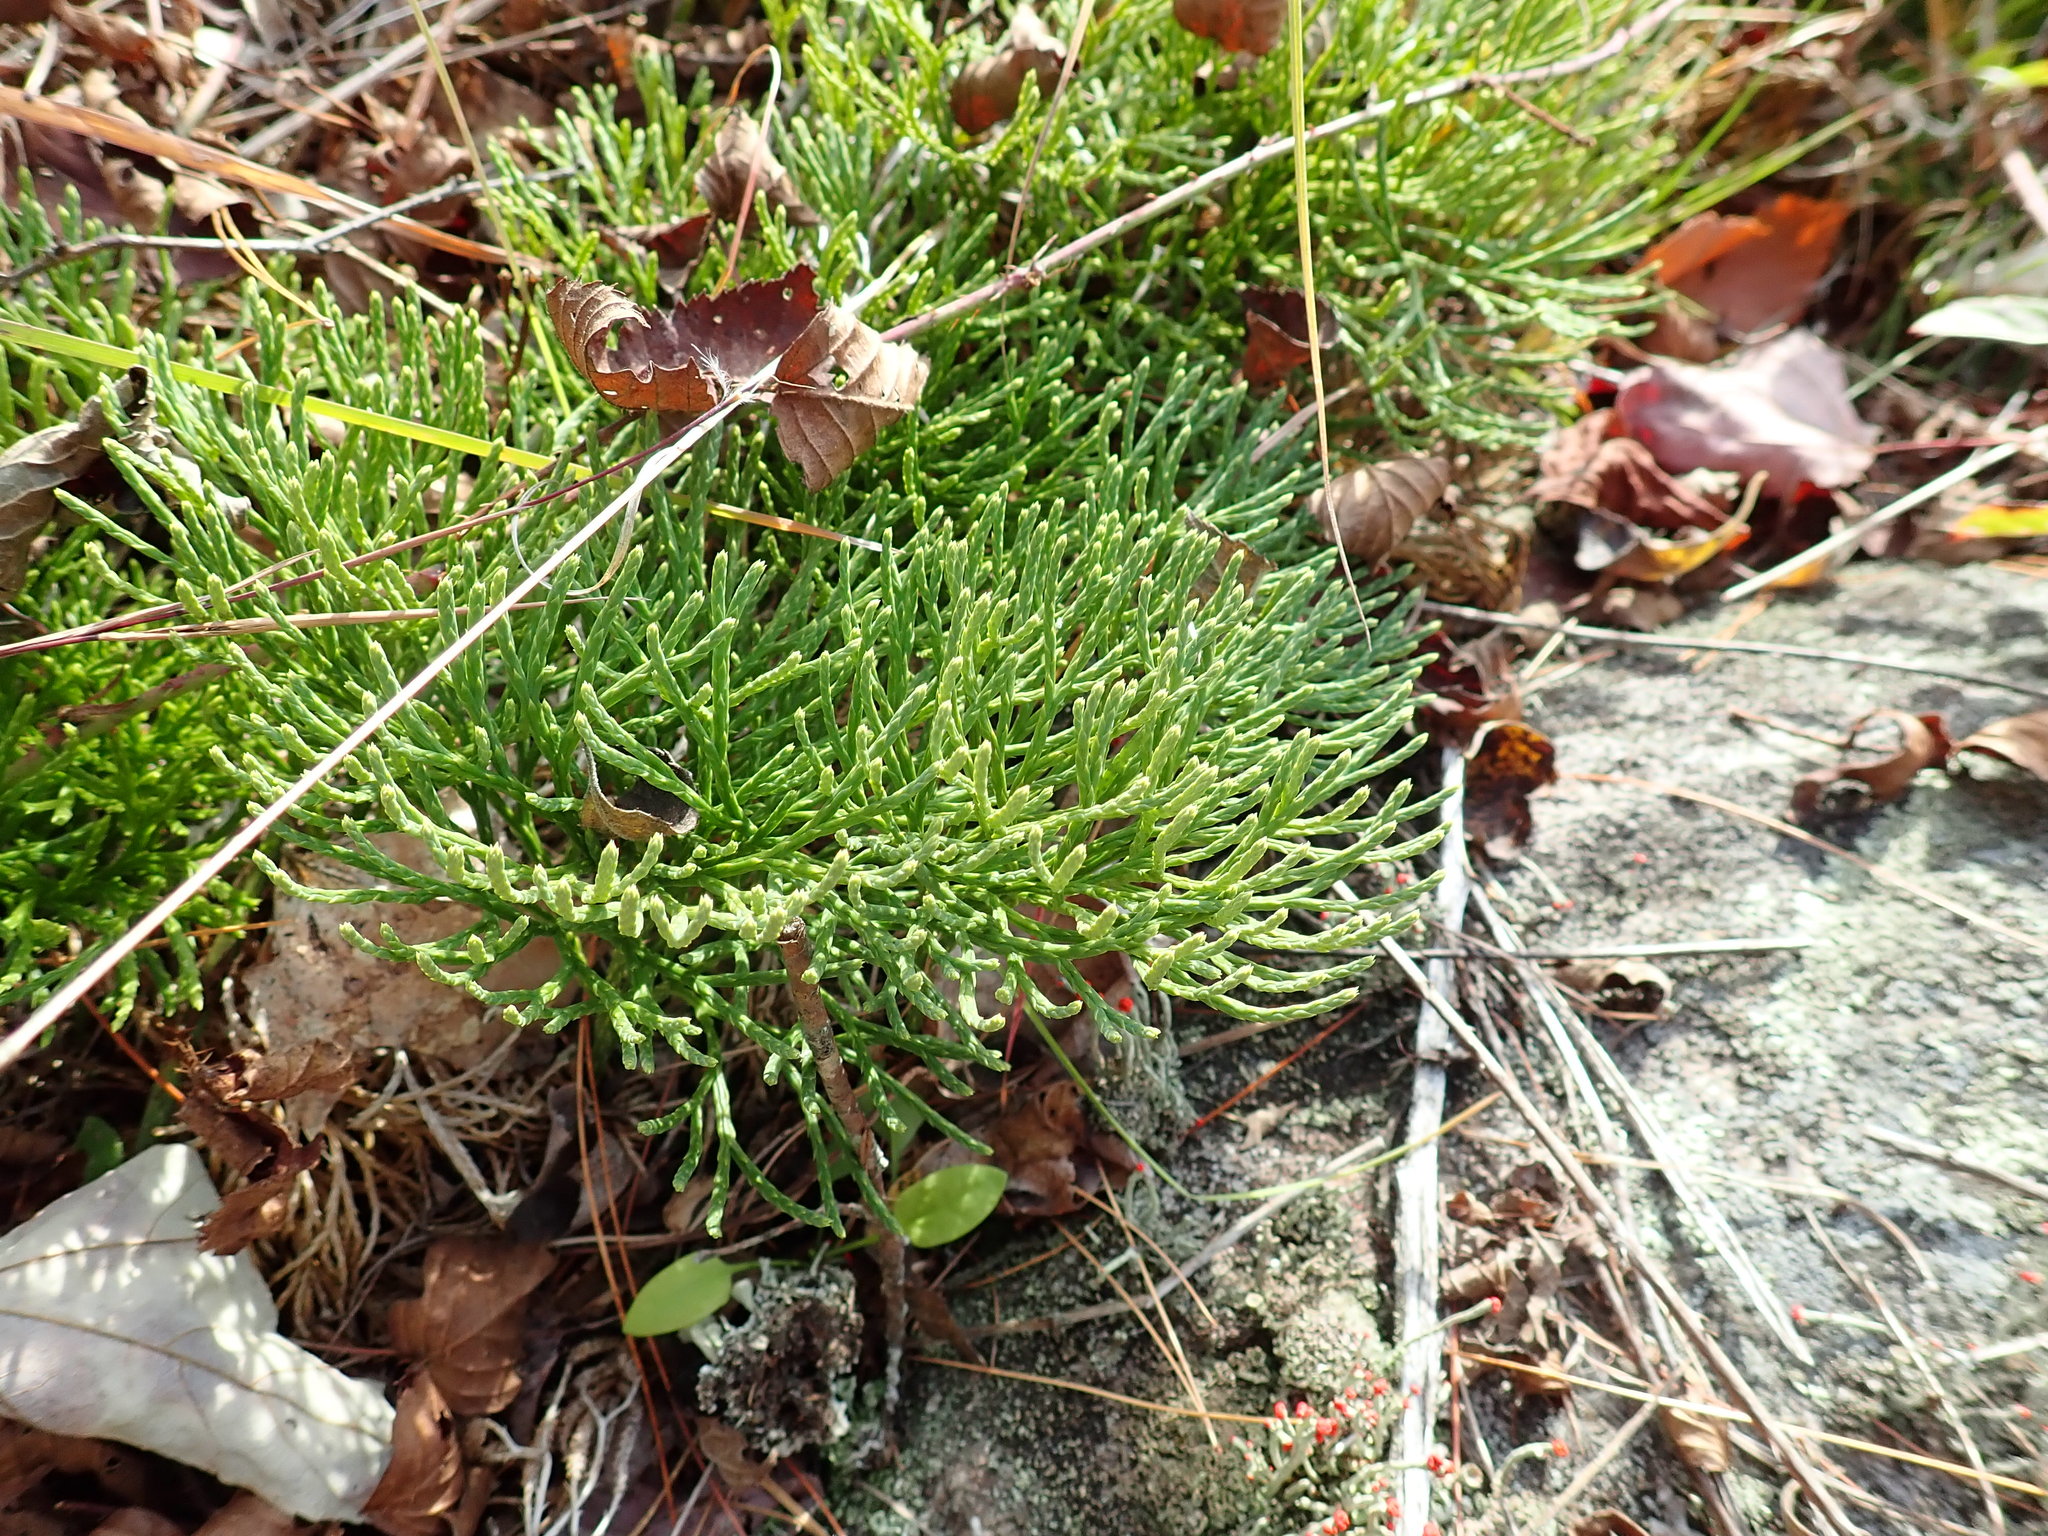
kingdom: Plantae
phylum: Tracheophyta
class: Lycopodiopsida
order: Lycopodiales
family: Lycopodiaceae
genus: Diphasiastrum
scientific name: Diphasiastrum tristachyum
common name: Blue ground-cedar
